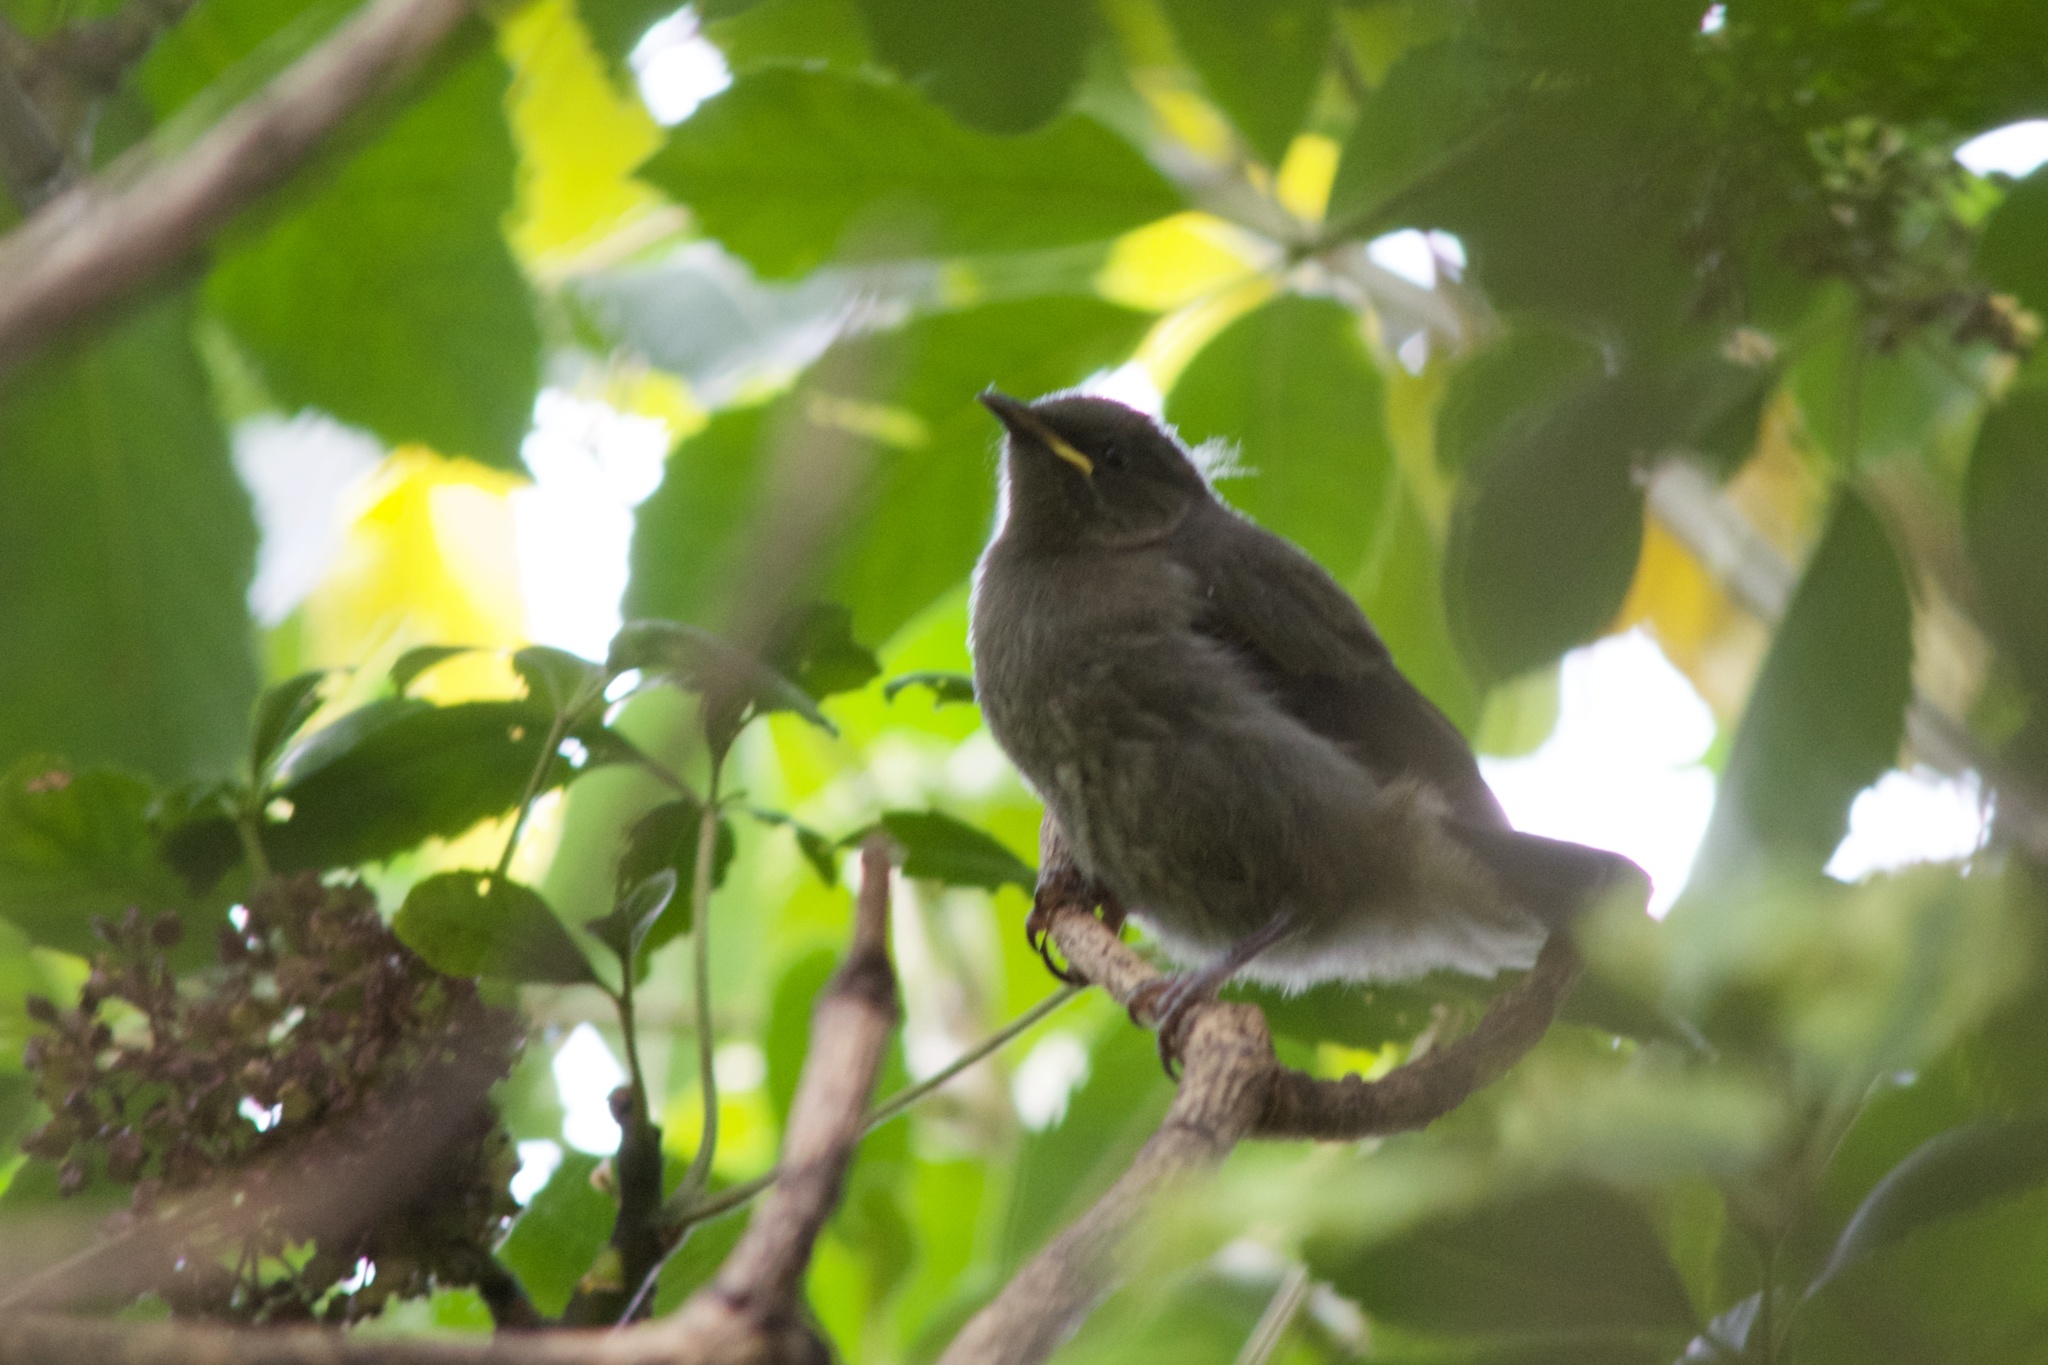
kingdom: Animalia
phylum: Chordata
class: Aves
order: Passeriformes
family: Meliphagidae
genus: Anthornis
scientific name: Anthornis melanura
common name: New zealand bellbird
